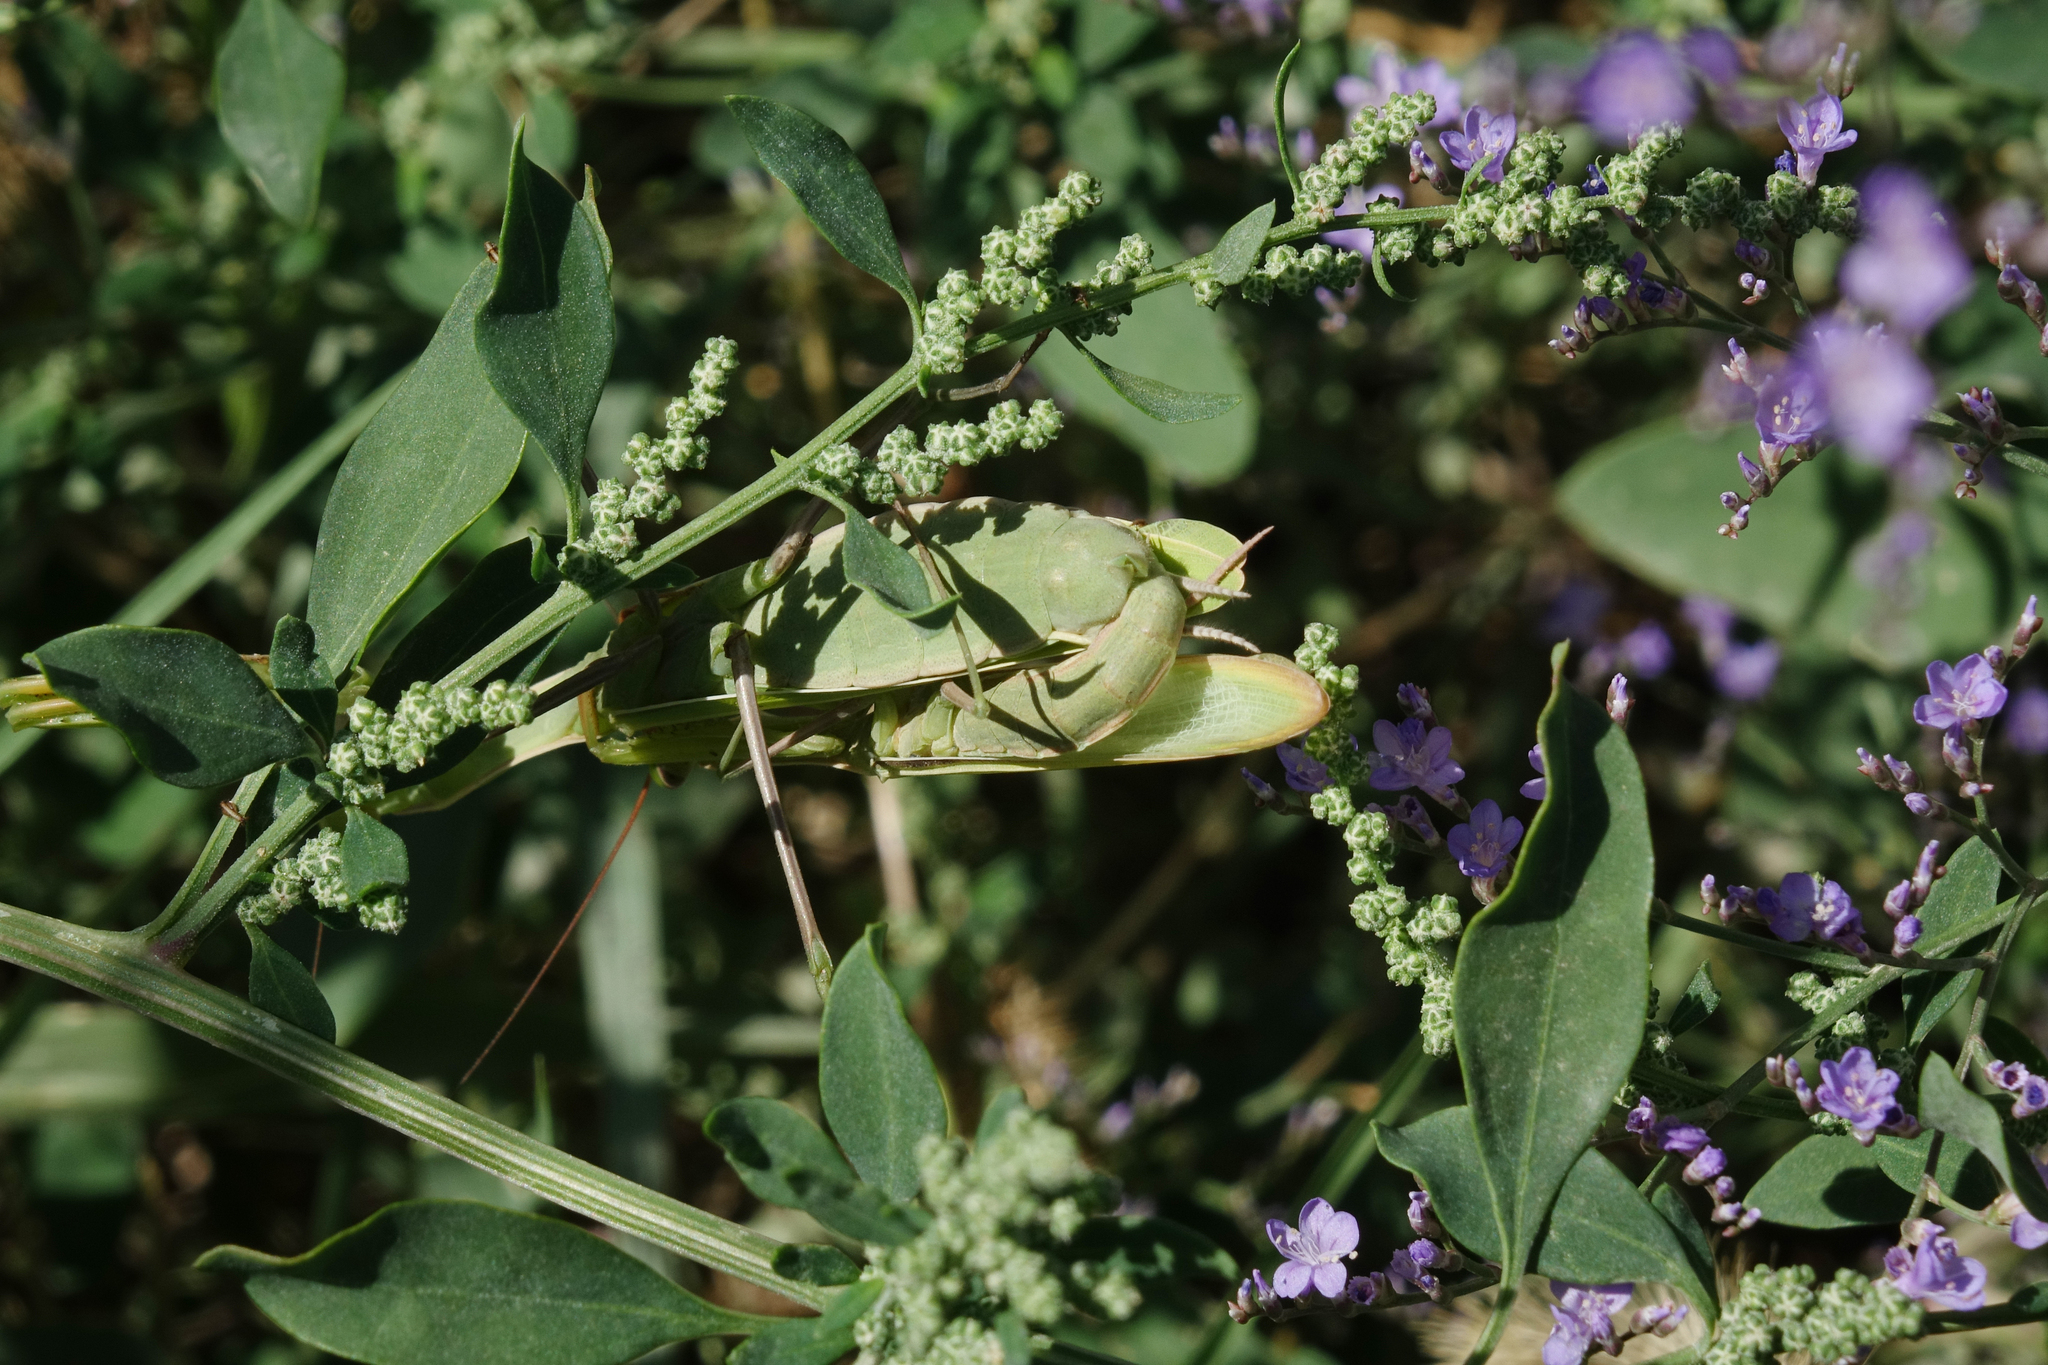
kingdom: Animalia
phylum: Arthropoda
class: Insecta
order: Mantodea
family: Mantidae
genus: Mantis
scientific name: Mantis religiosa
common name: Praying mantis
